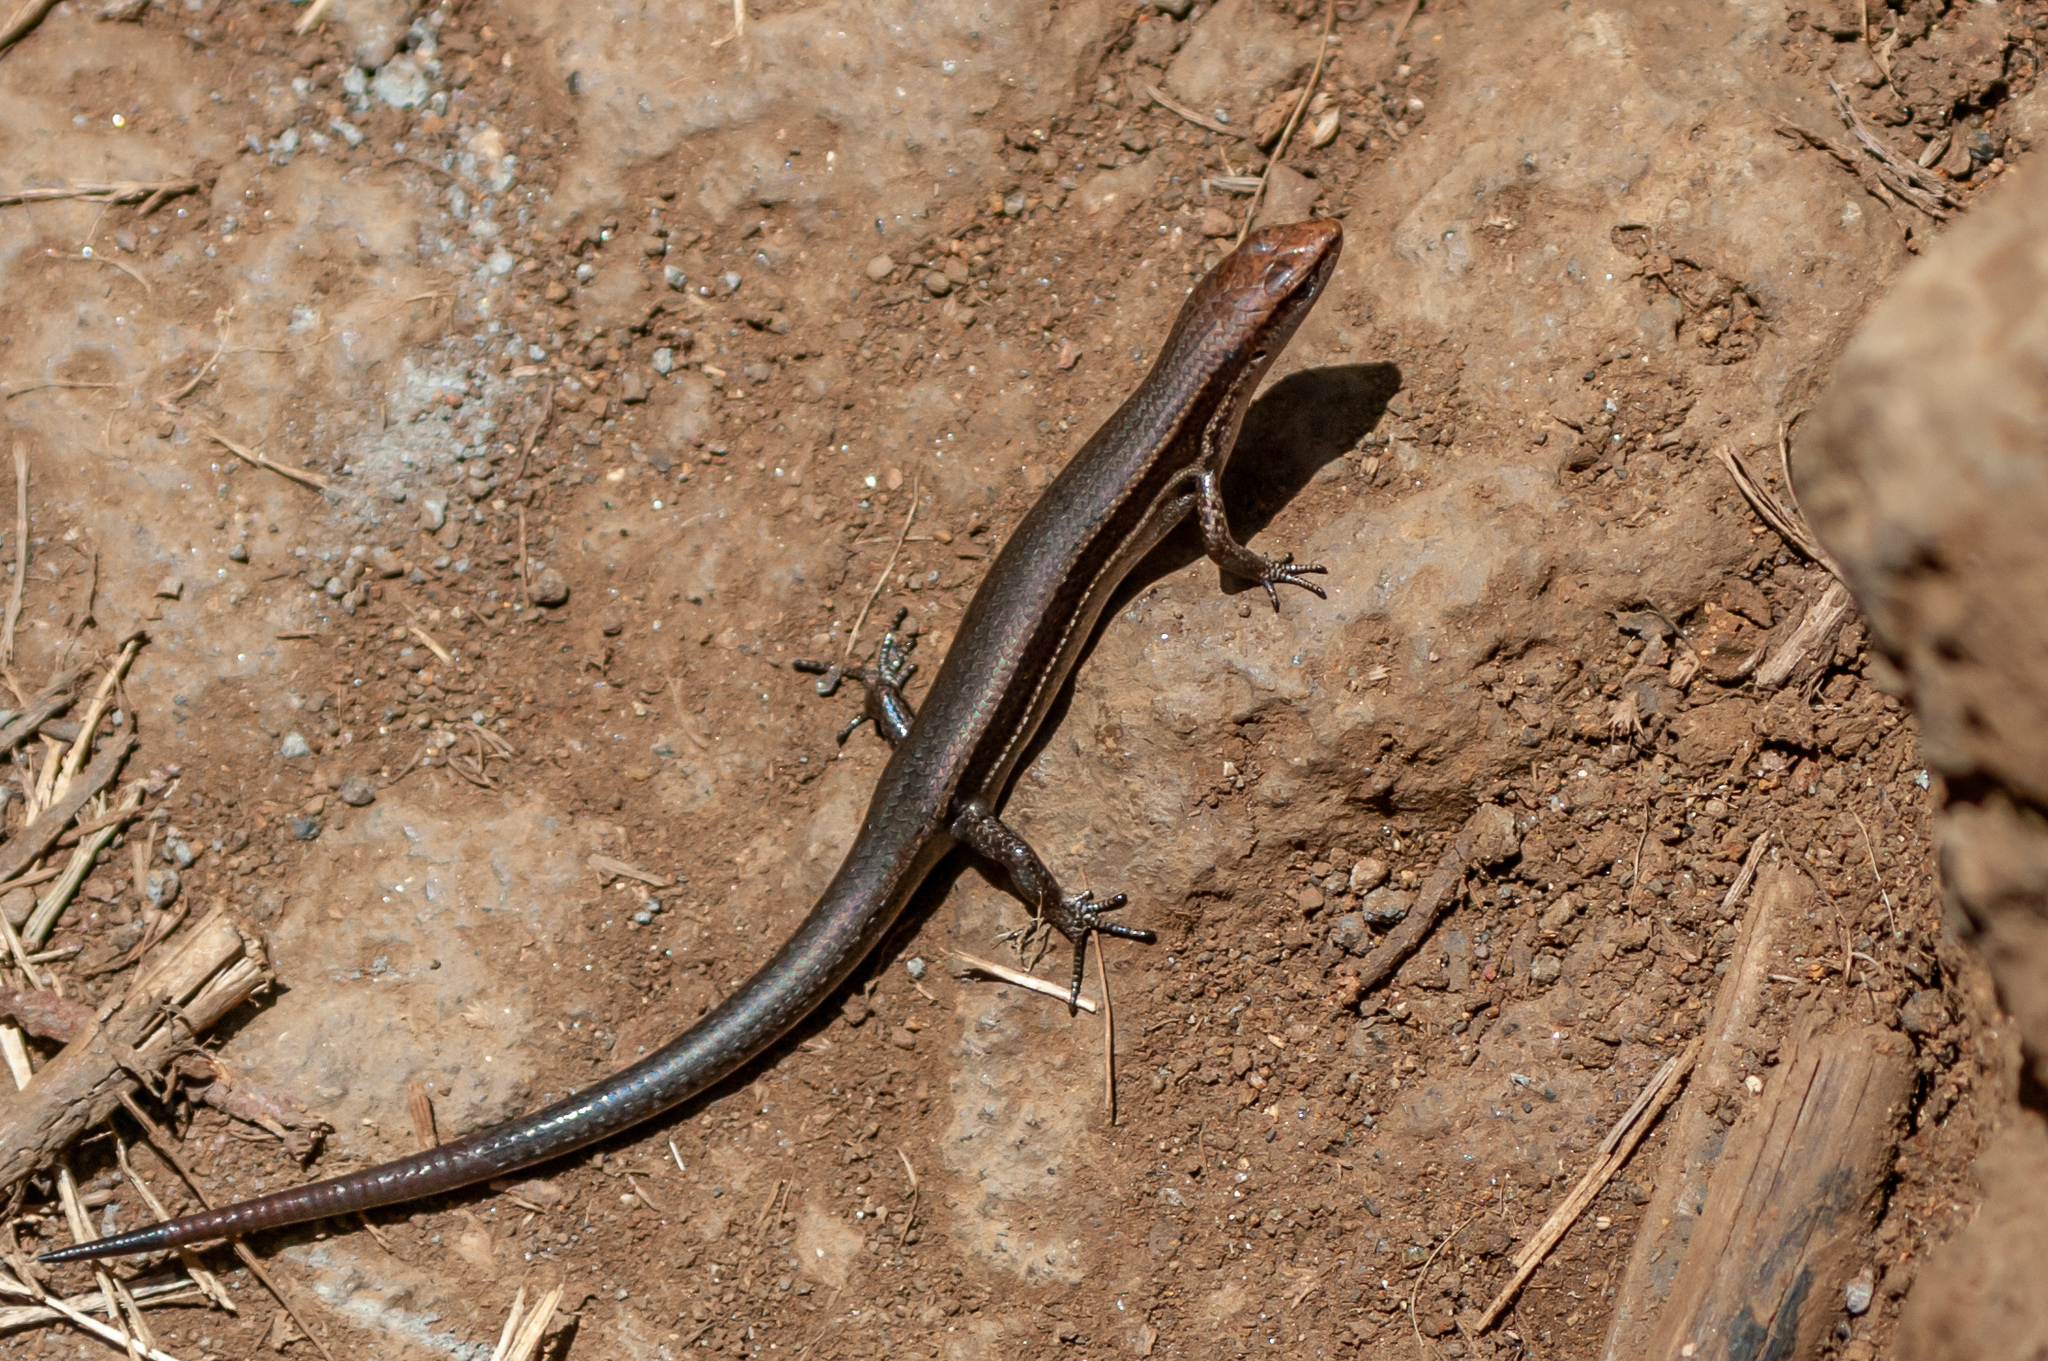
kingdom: Animalia
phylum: Chordata
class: Squamata
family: Scincidae
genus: Lampropholis
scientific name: Lampropholis delicata
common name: Plague skink
